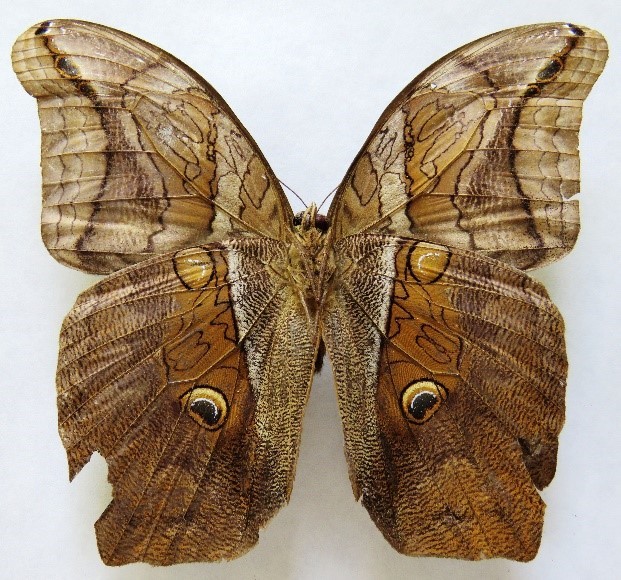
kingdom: Animalia
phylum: Arthropoda
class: Insecta
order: Lepidoptera
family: Nymphalidae
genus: Eryphanis
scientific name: Eryphanis lycomedon
